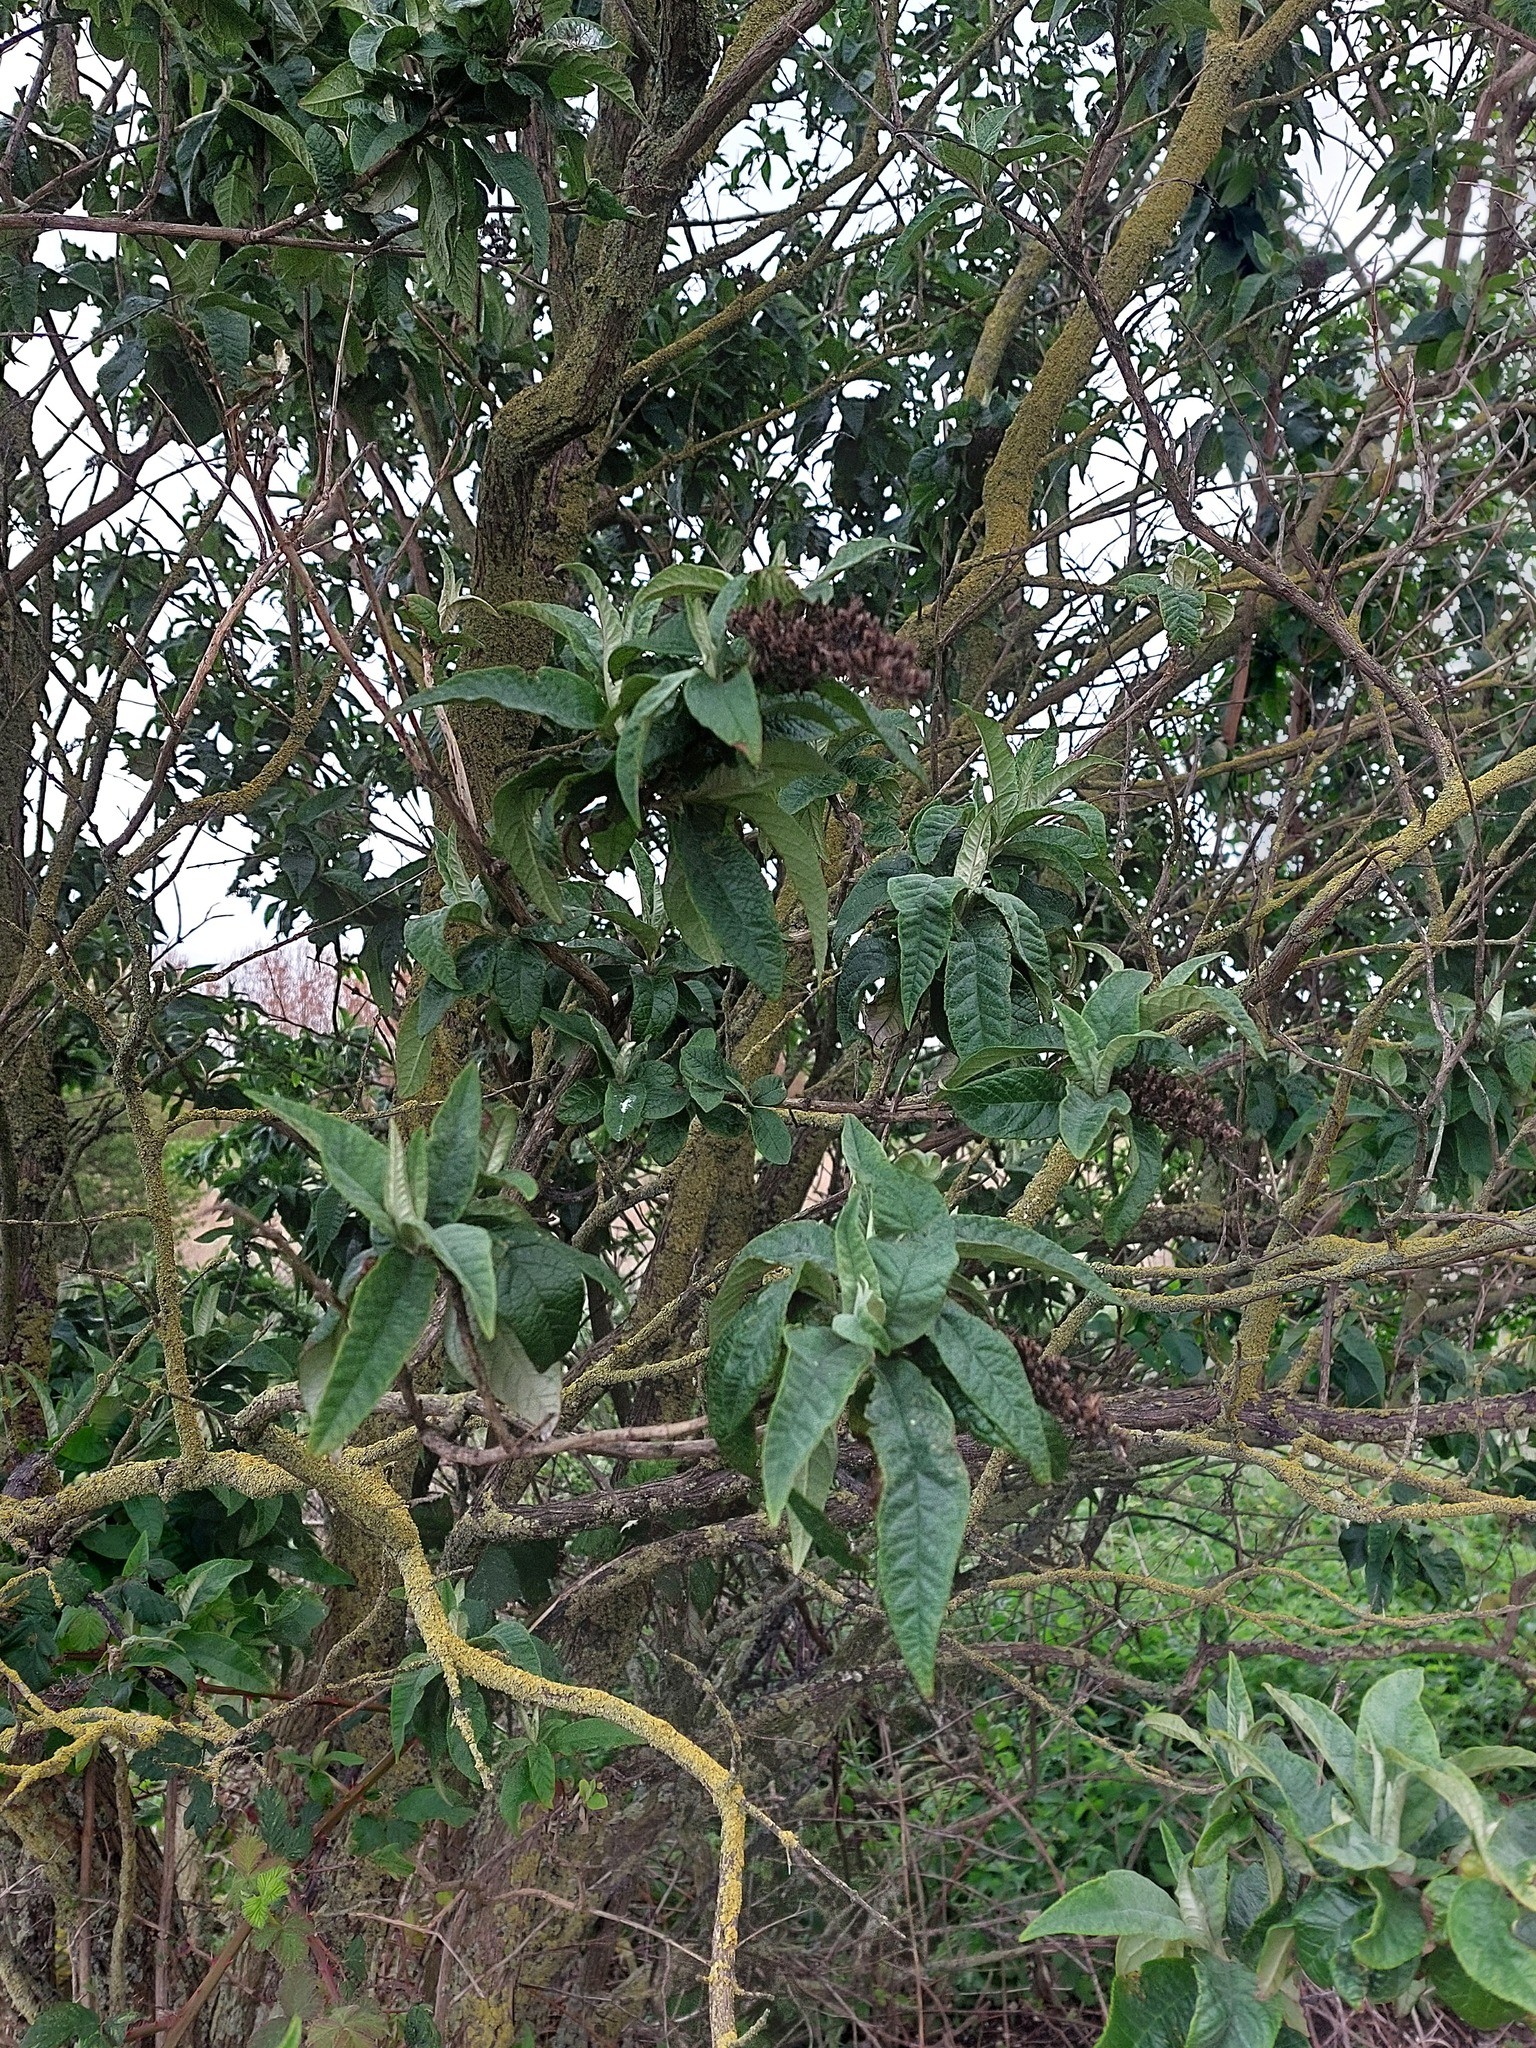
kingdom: Plantae
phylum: Tracheophyta
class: Magnoliopsida
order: Lamiales
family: Scrophulariaceae
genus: Buddleja
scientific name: Buddleja davidii
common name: Butterfly-bush
